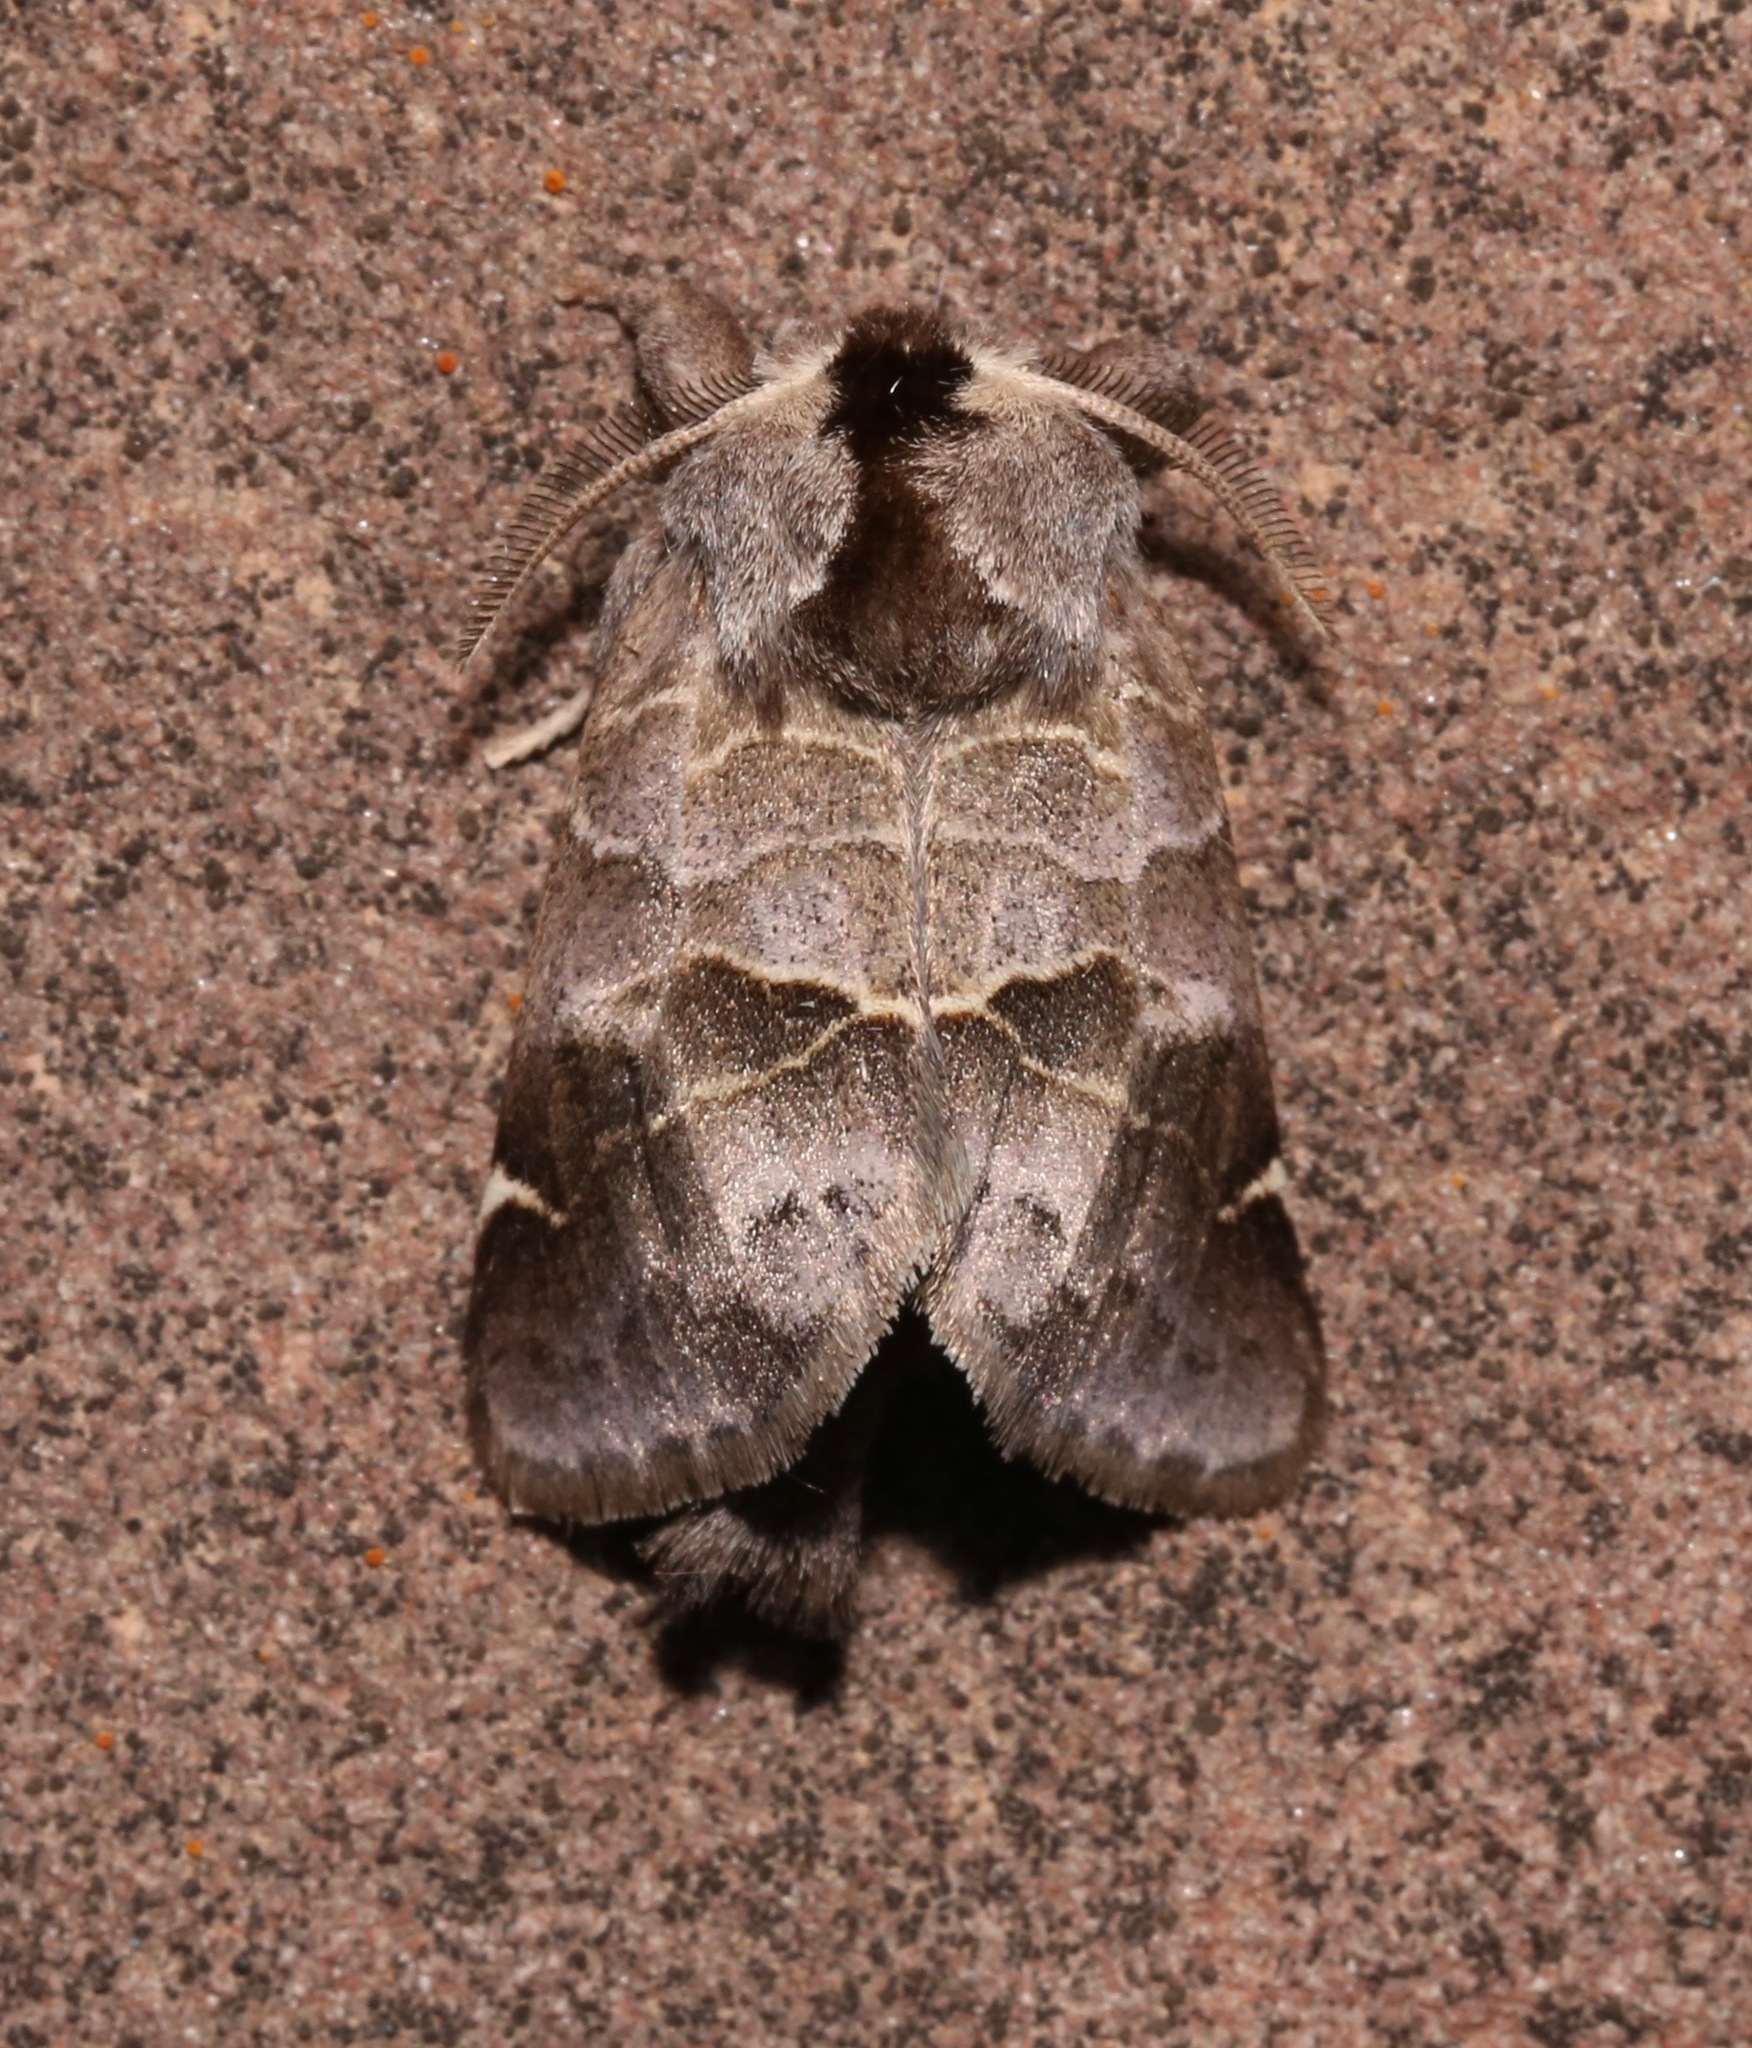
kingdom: Animalia
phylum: Arthropoda
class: Insecta
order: Lepidoptera
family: Notodontidae
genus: Clostera
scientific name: Clostera brucei
